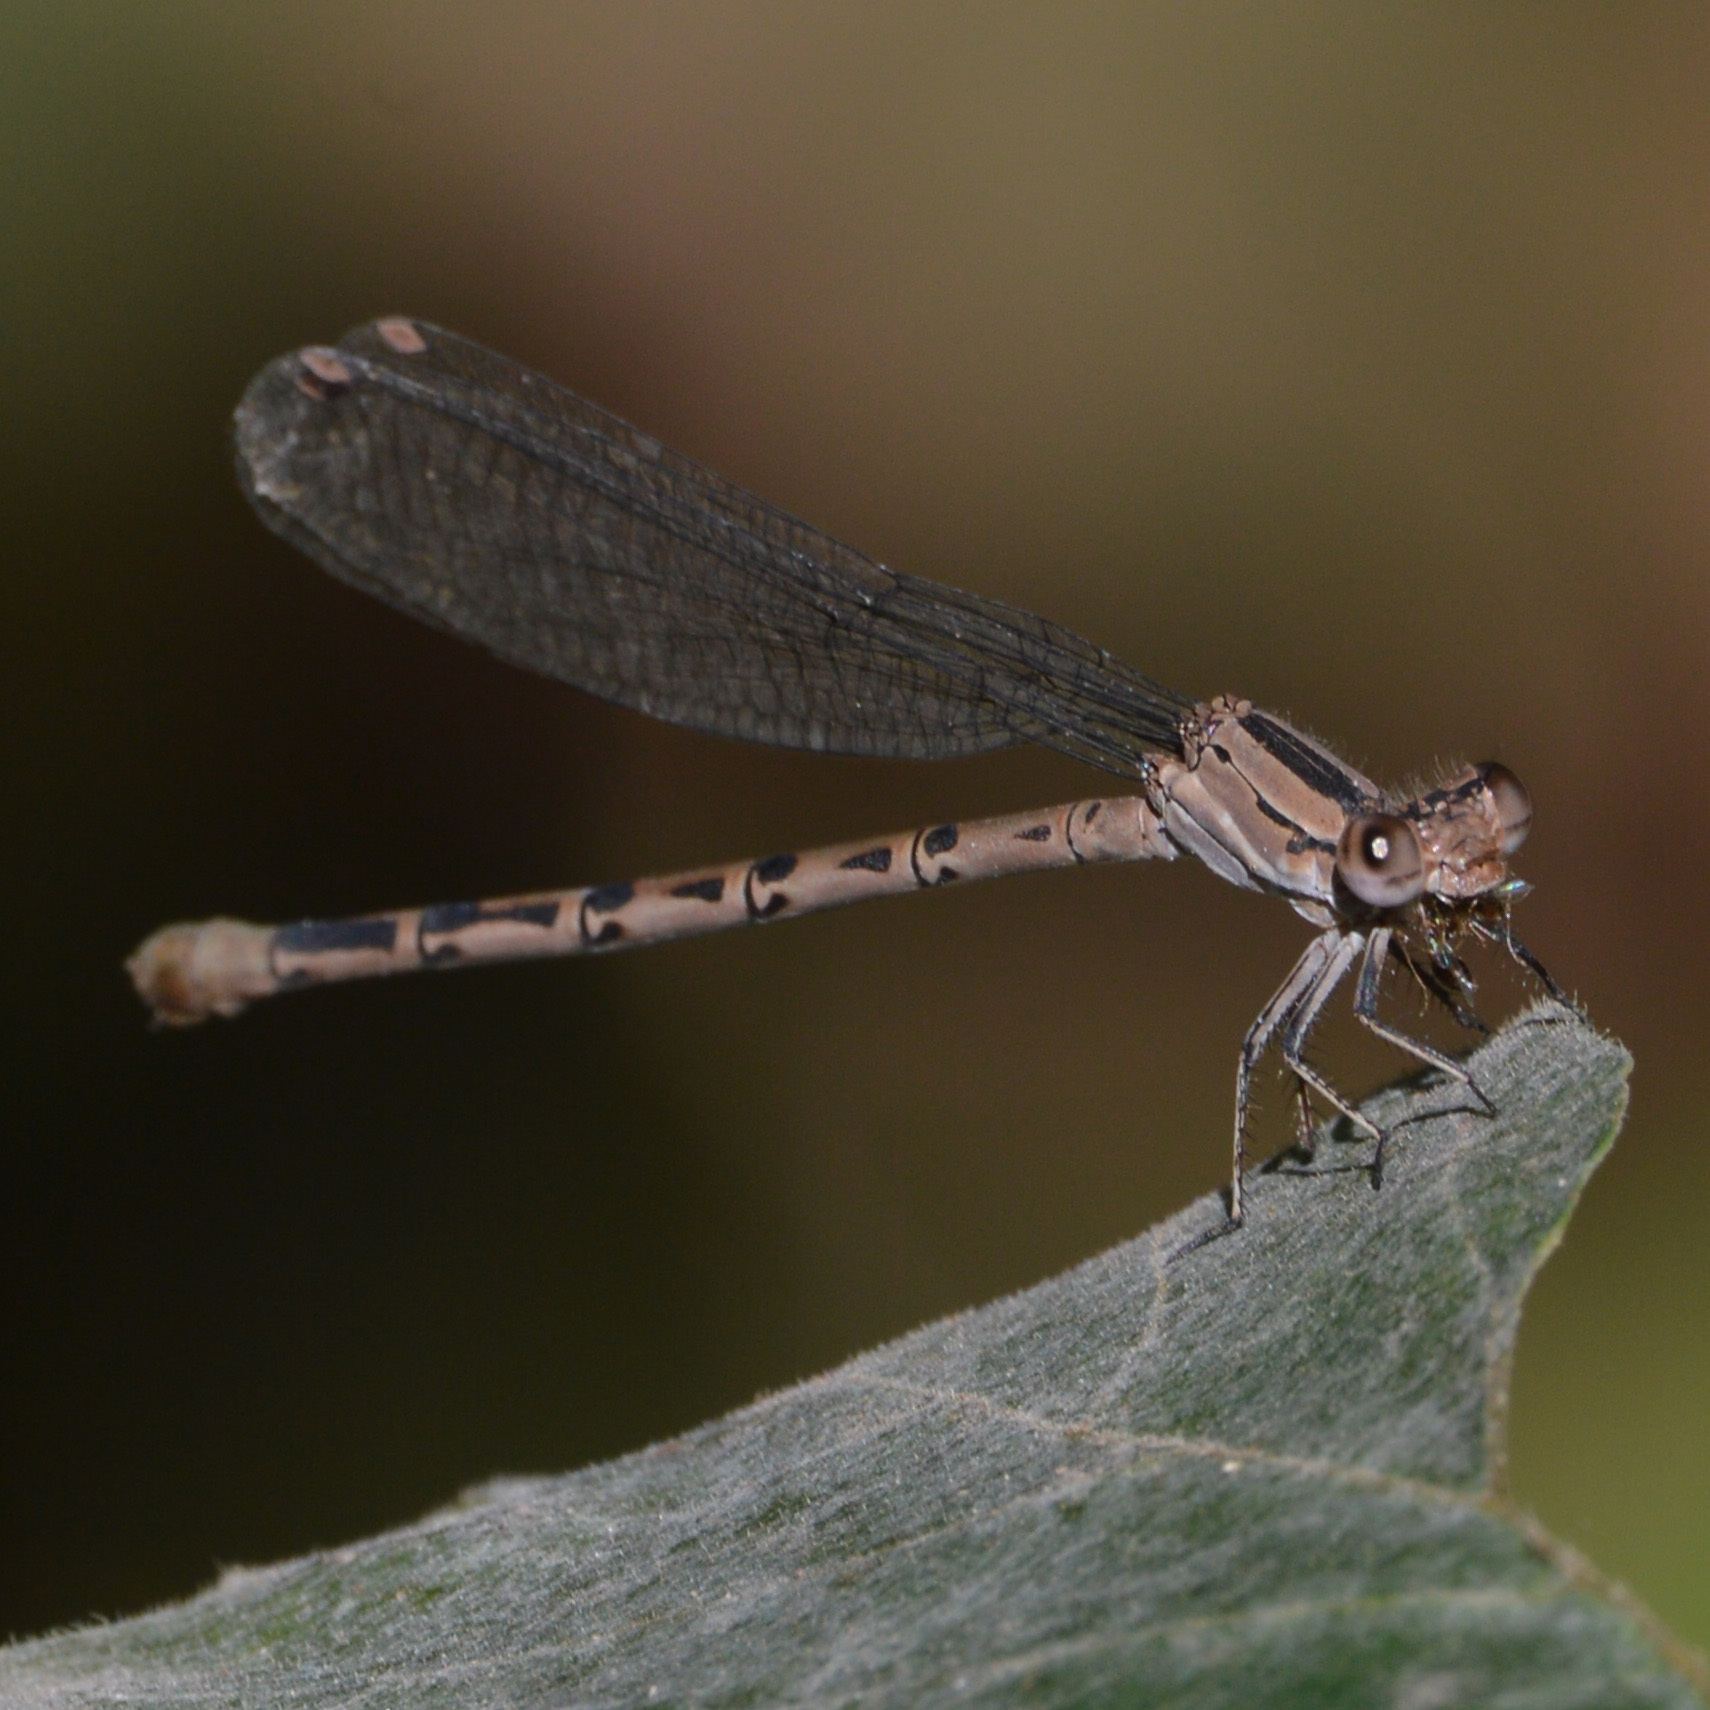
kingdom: Animalia
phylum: Arthropoda
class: Insecta
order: Odonata
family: Coenagrionidae
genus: Argia
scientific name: Argia vivida
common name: Vivid dancer
